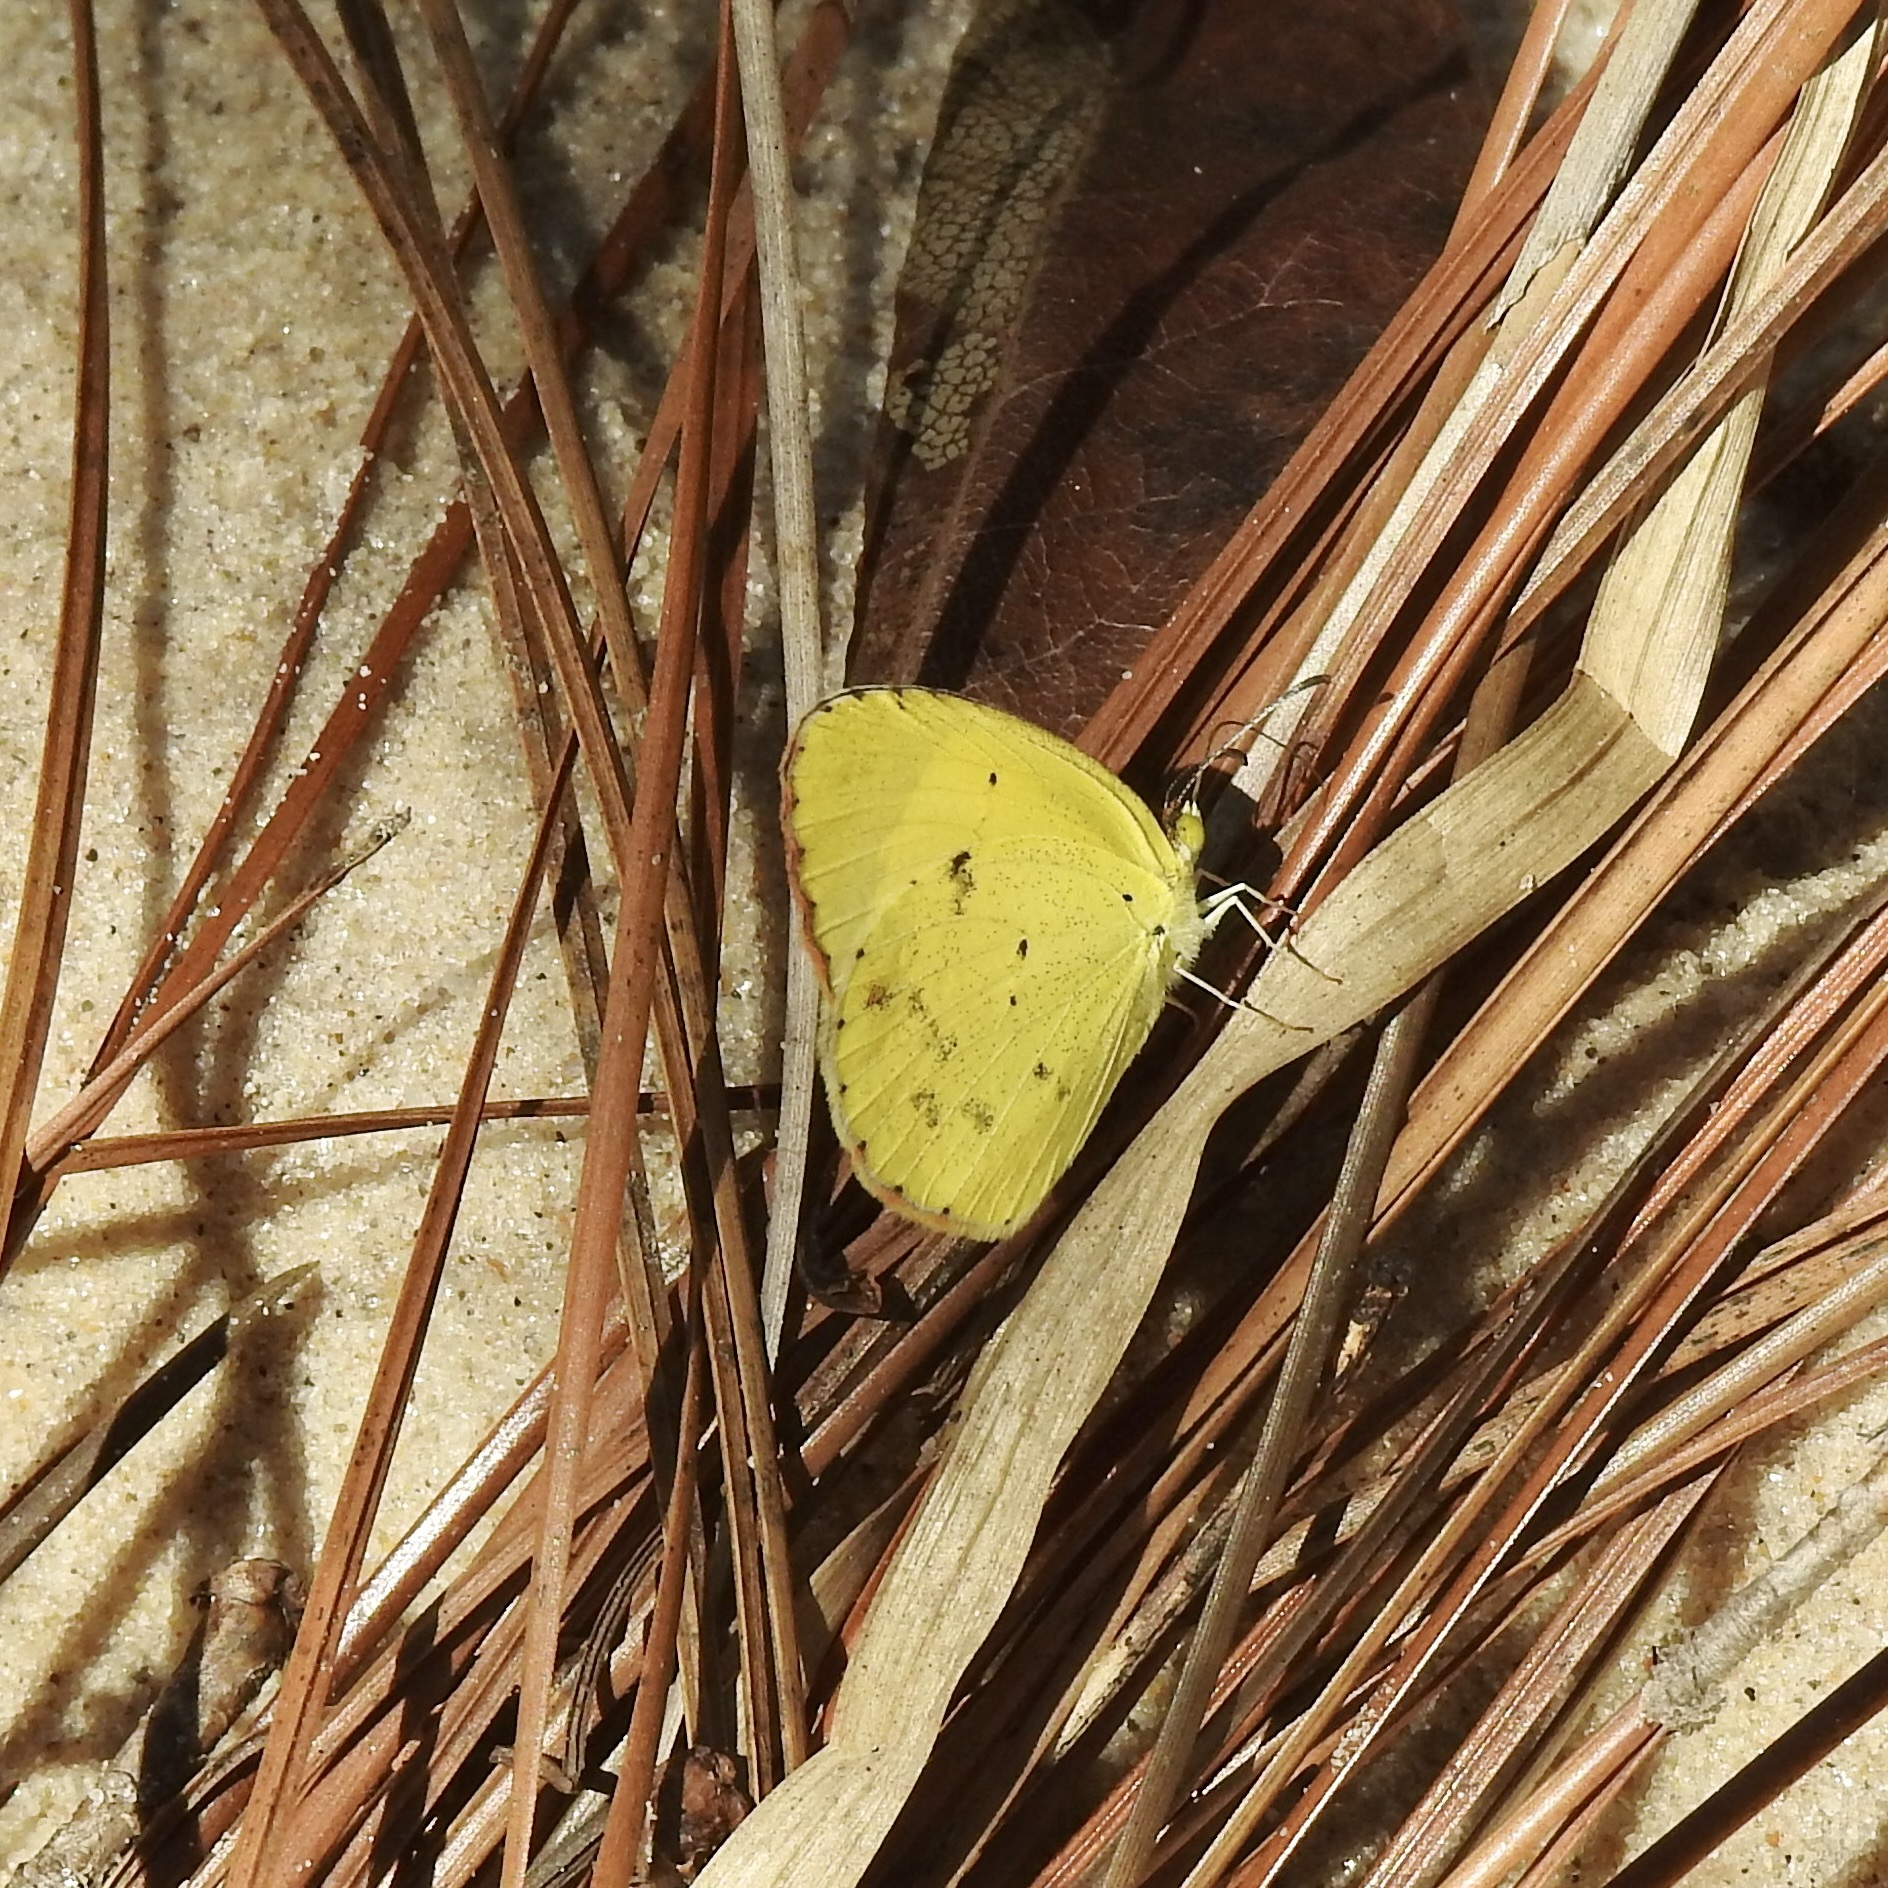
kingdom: Animalia
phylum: Arthropoda
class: Insecta
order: Lepidoptera
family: Pieridae
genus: Pyrisitia
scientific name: Pyrisitia lisa
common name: Little yellow
